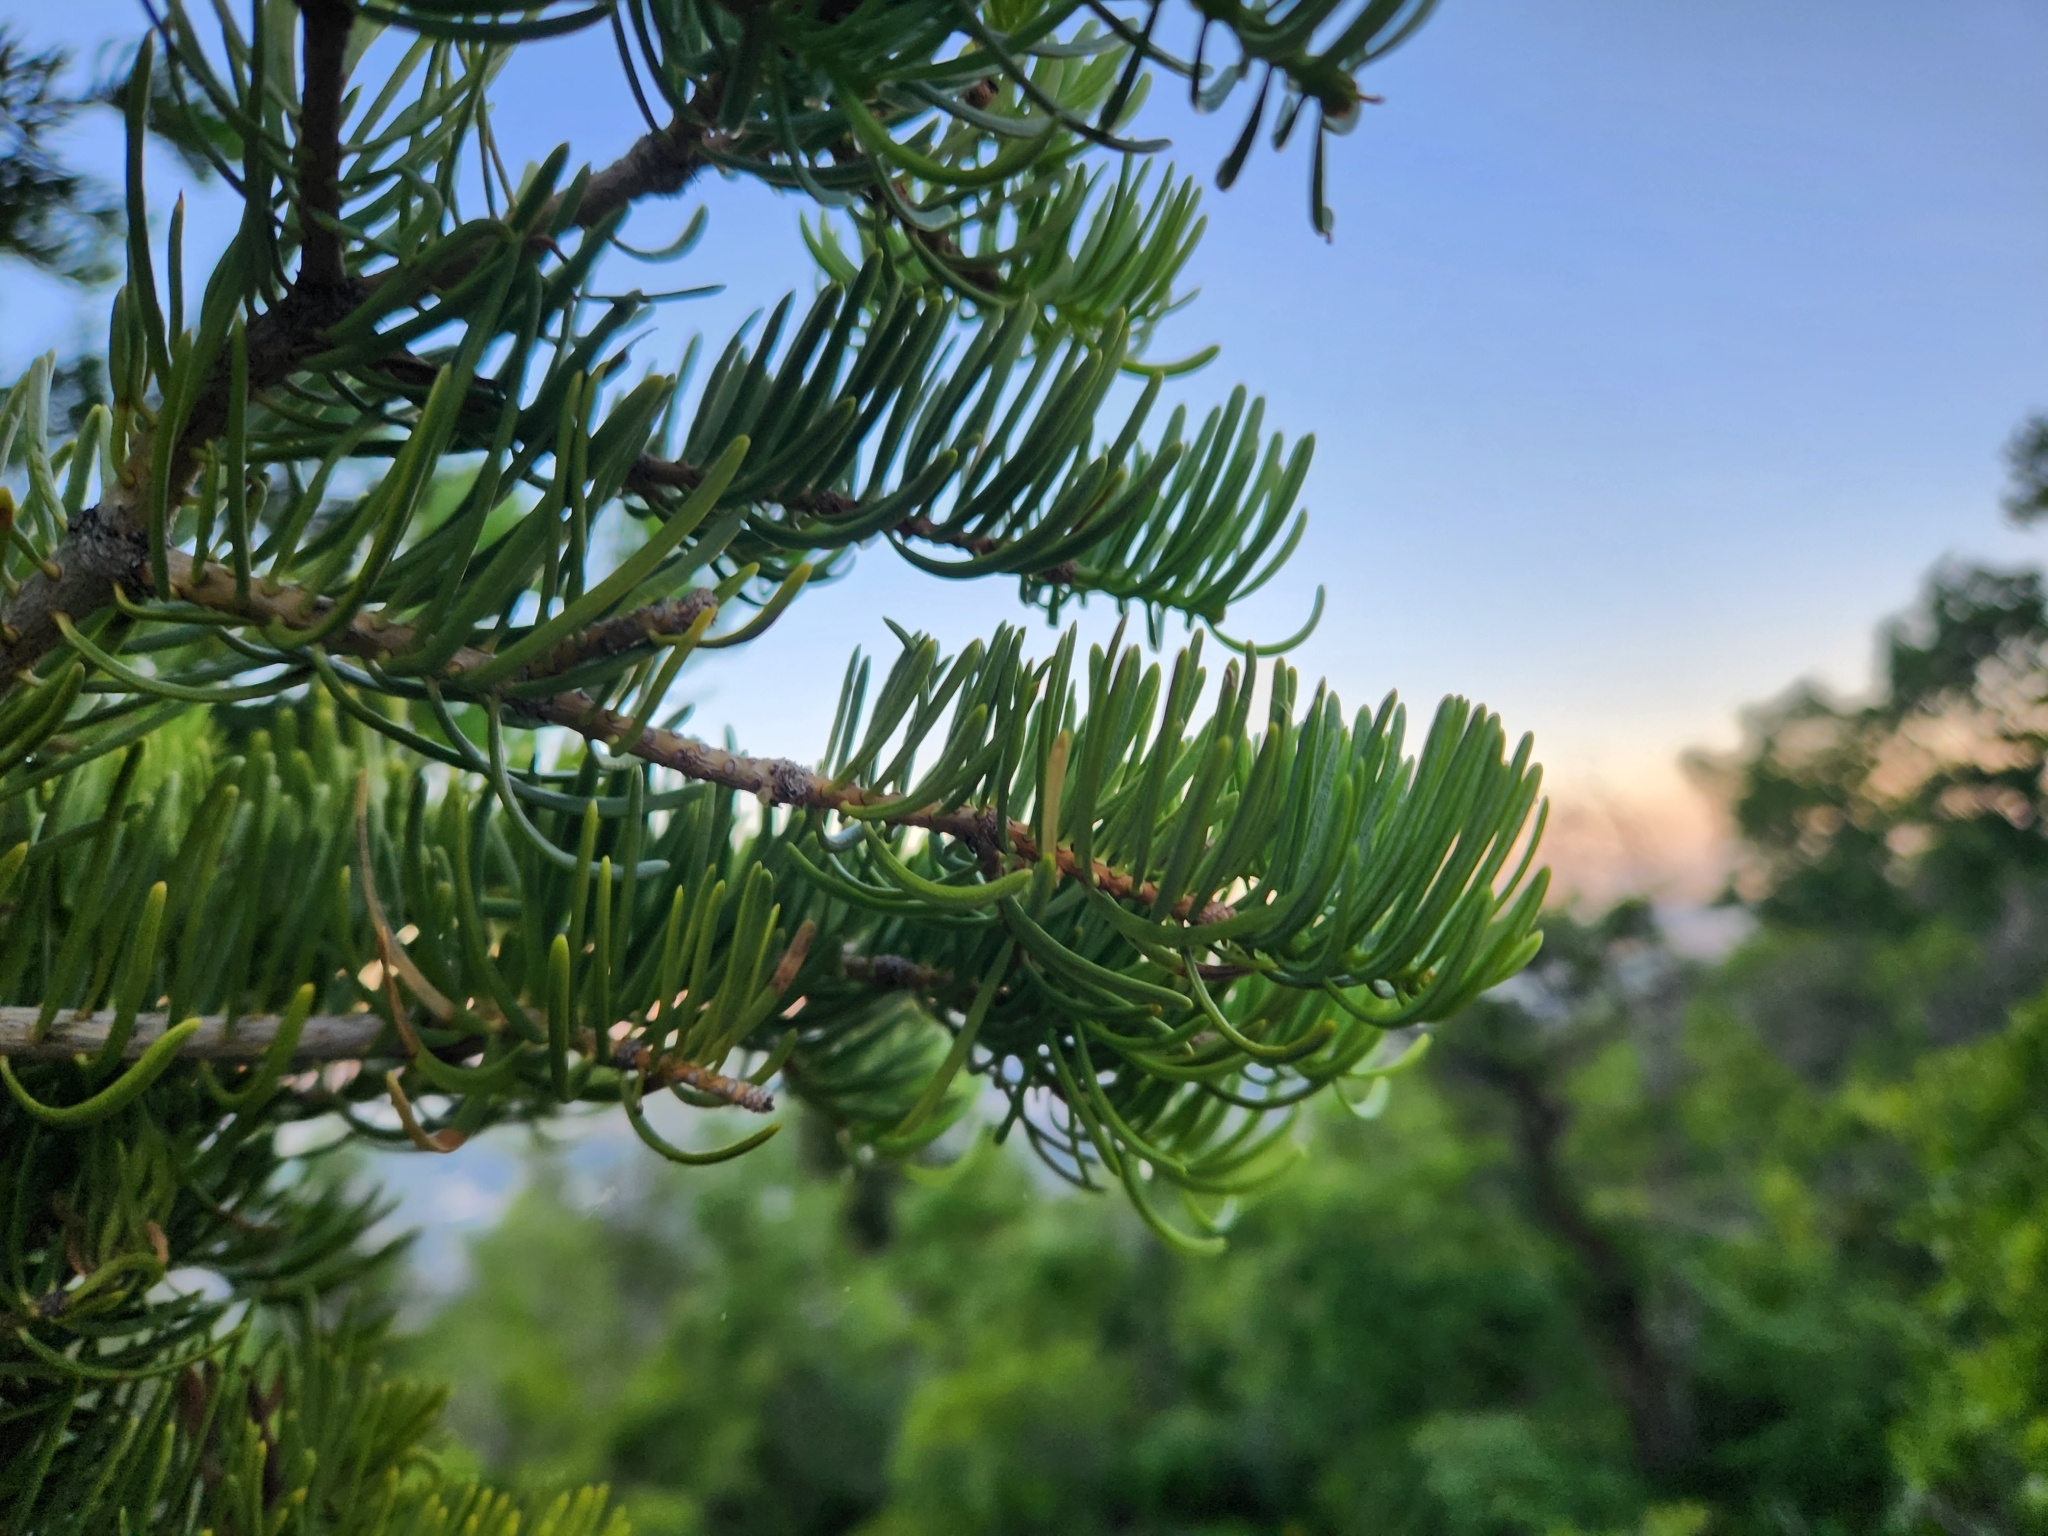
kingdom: Plantae
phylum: Tracheophyta
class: Pinopsida
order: Pinales
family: Pinaceae
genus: Abies
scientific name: Abies concolor
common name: Colorado fir
